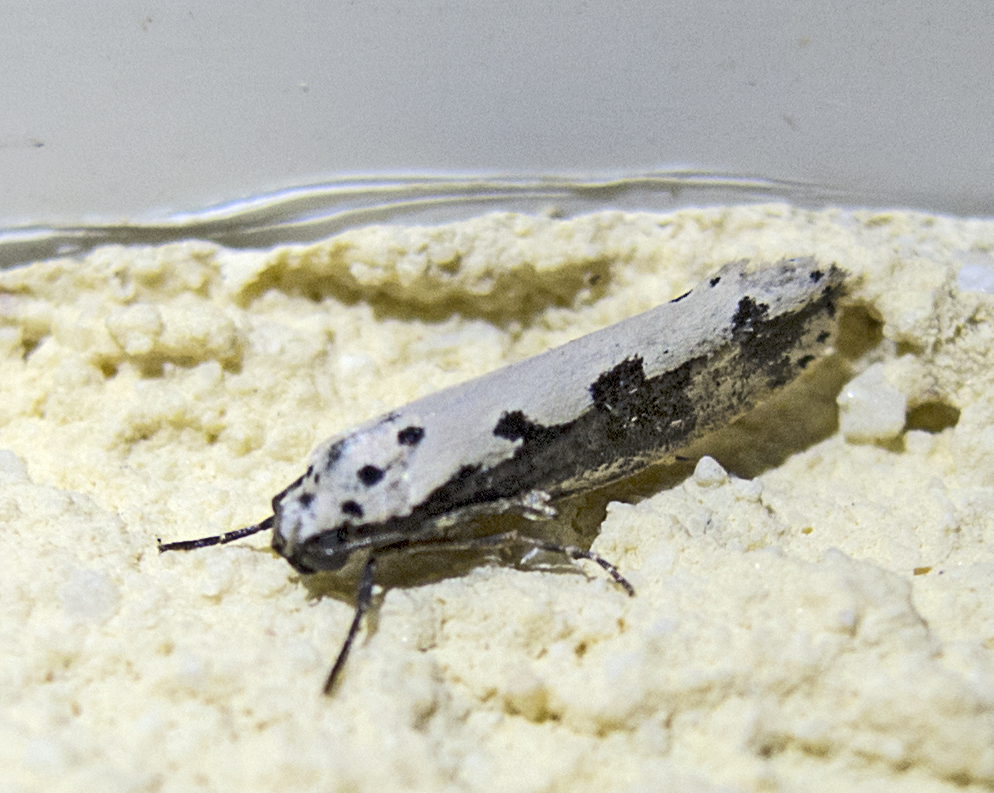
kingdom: Animalia
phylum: Arthropoda
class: Insecta
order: Lepidoptera
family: Ethmiidae
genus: Ethmia
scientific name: Ethmia bipunctella
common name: Bordered ermel
